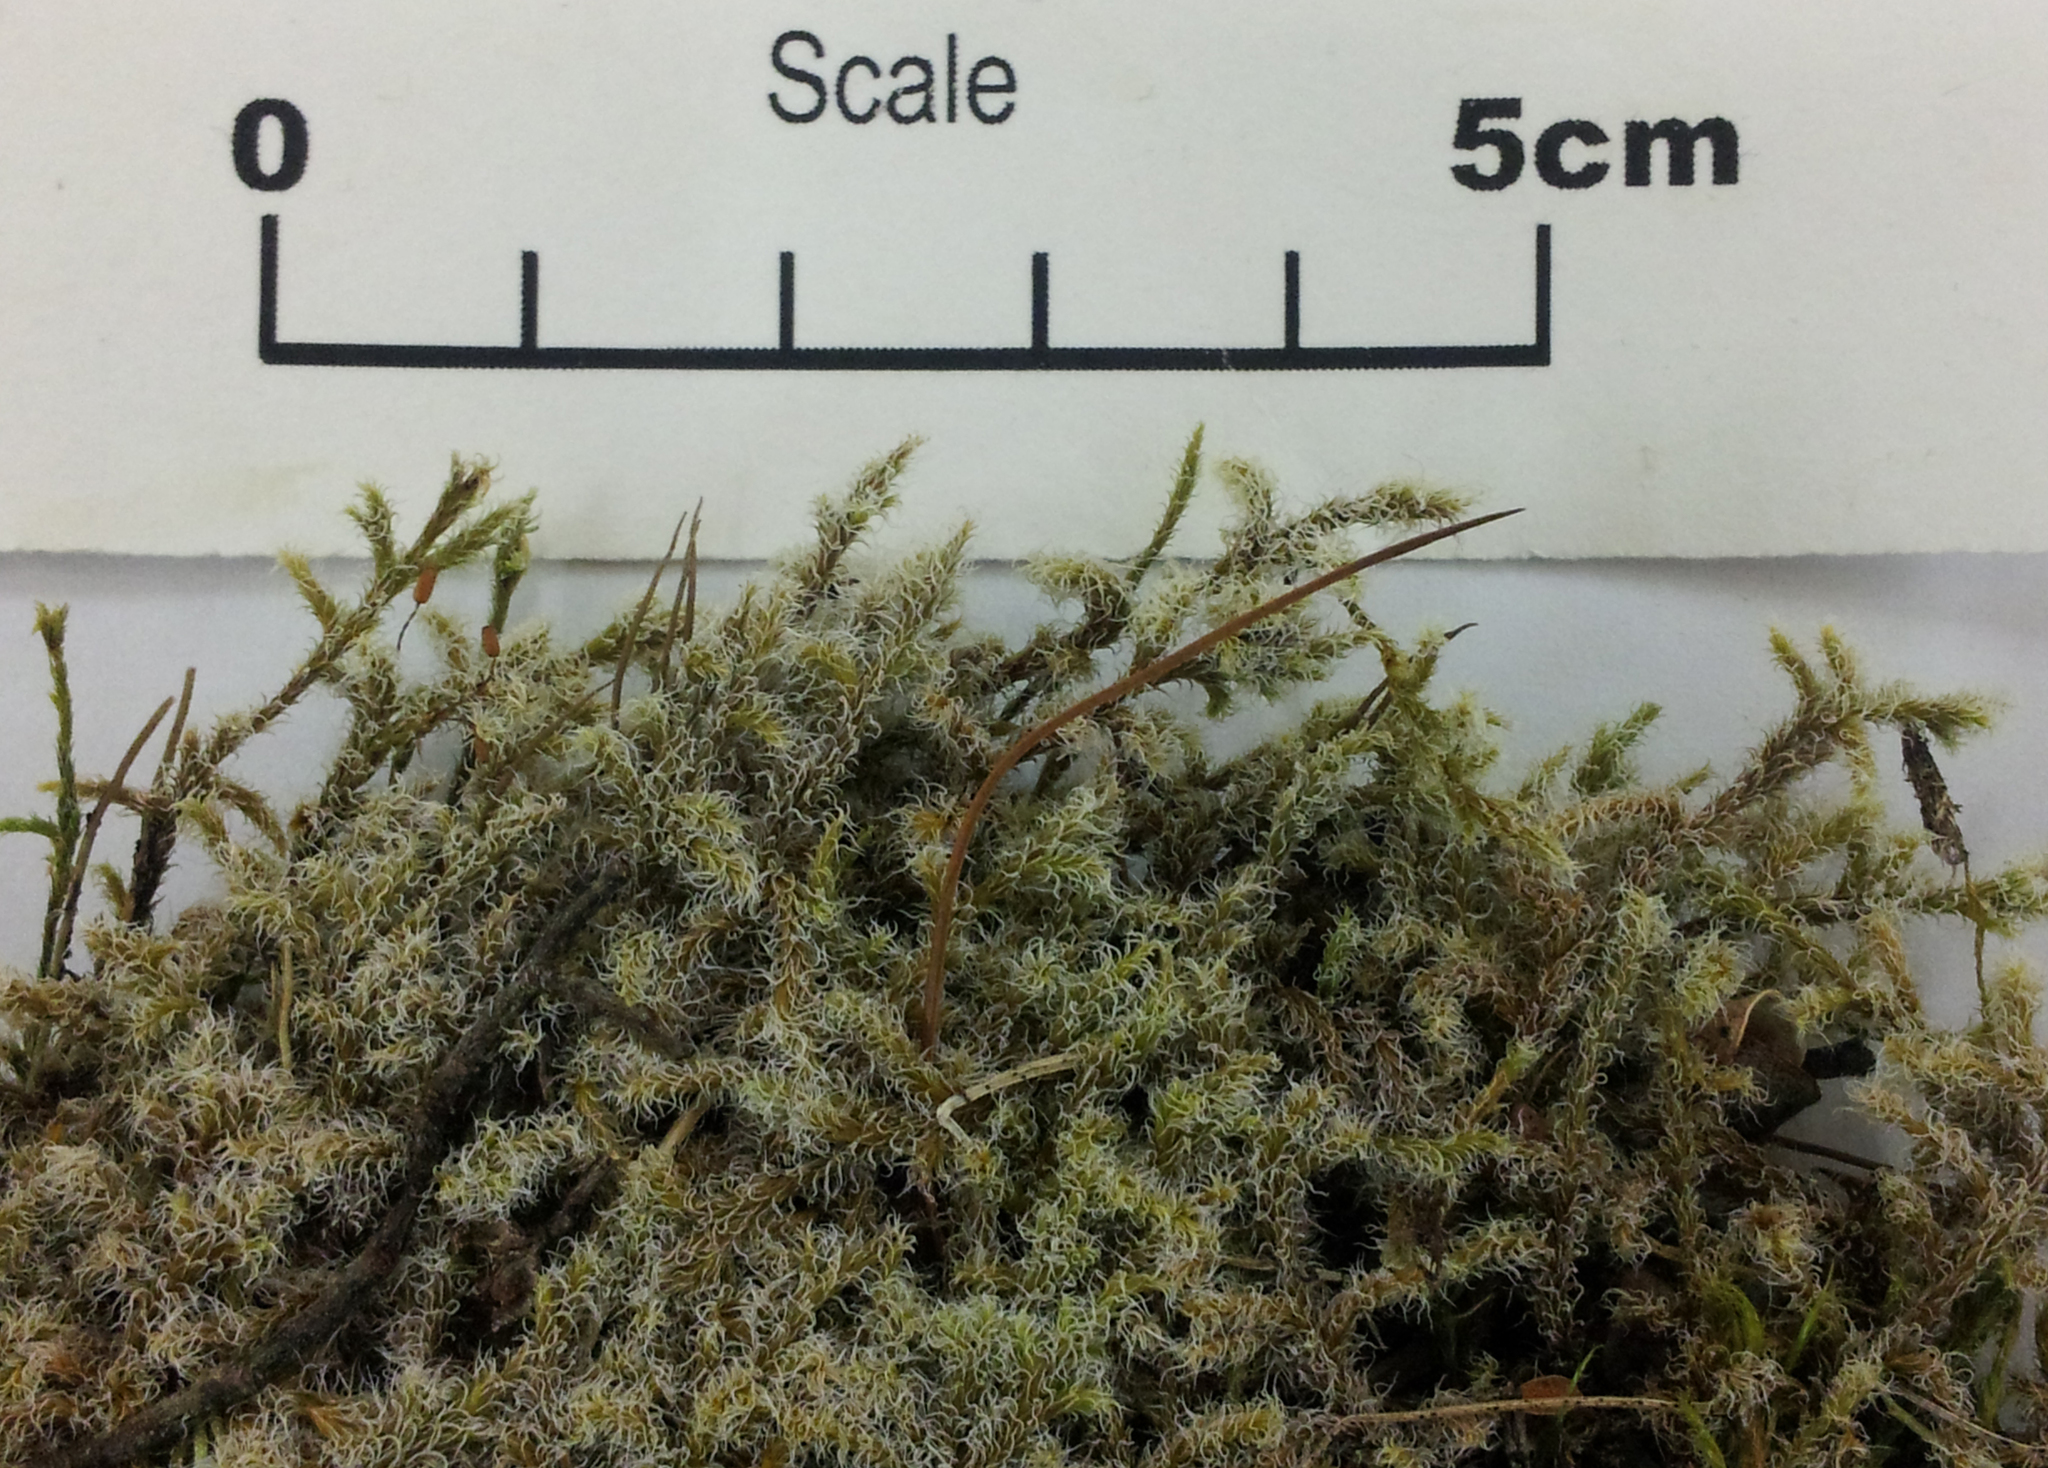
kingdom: Plantae
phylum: Bryophyta
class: Bryopsida
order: Grimmiales
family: Grimmiaceae
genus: Racomitrium
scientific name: Racomitrium lanuginosum
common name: Hoary rock moss
